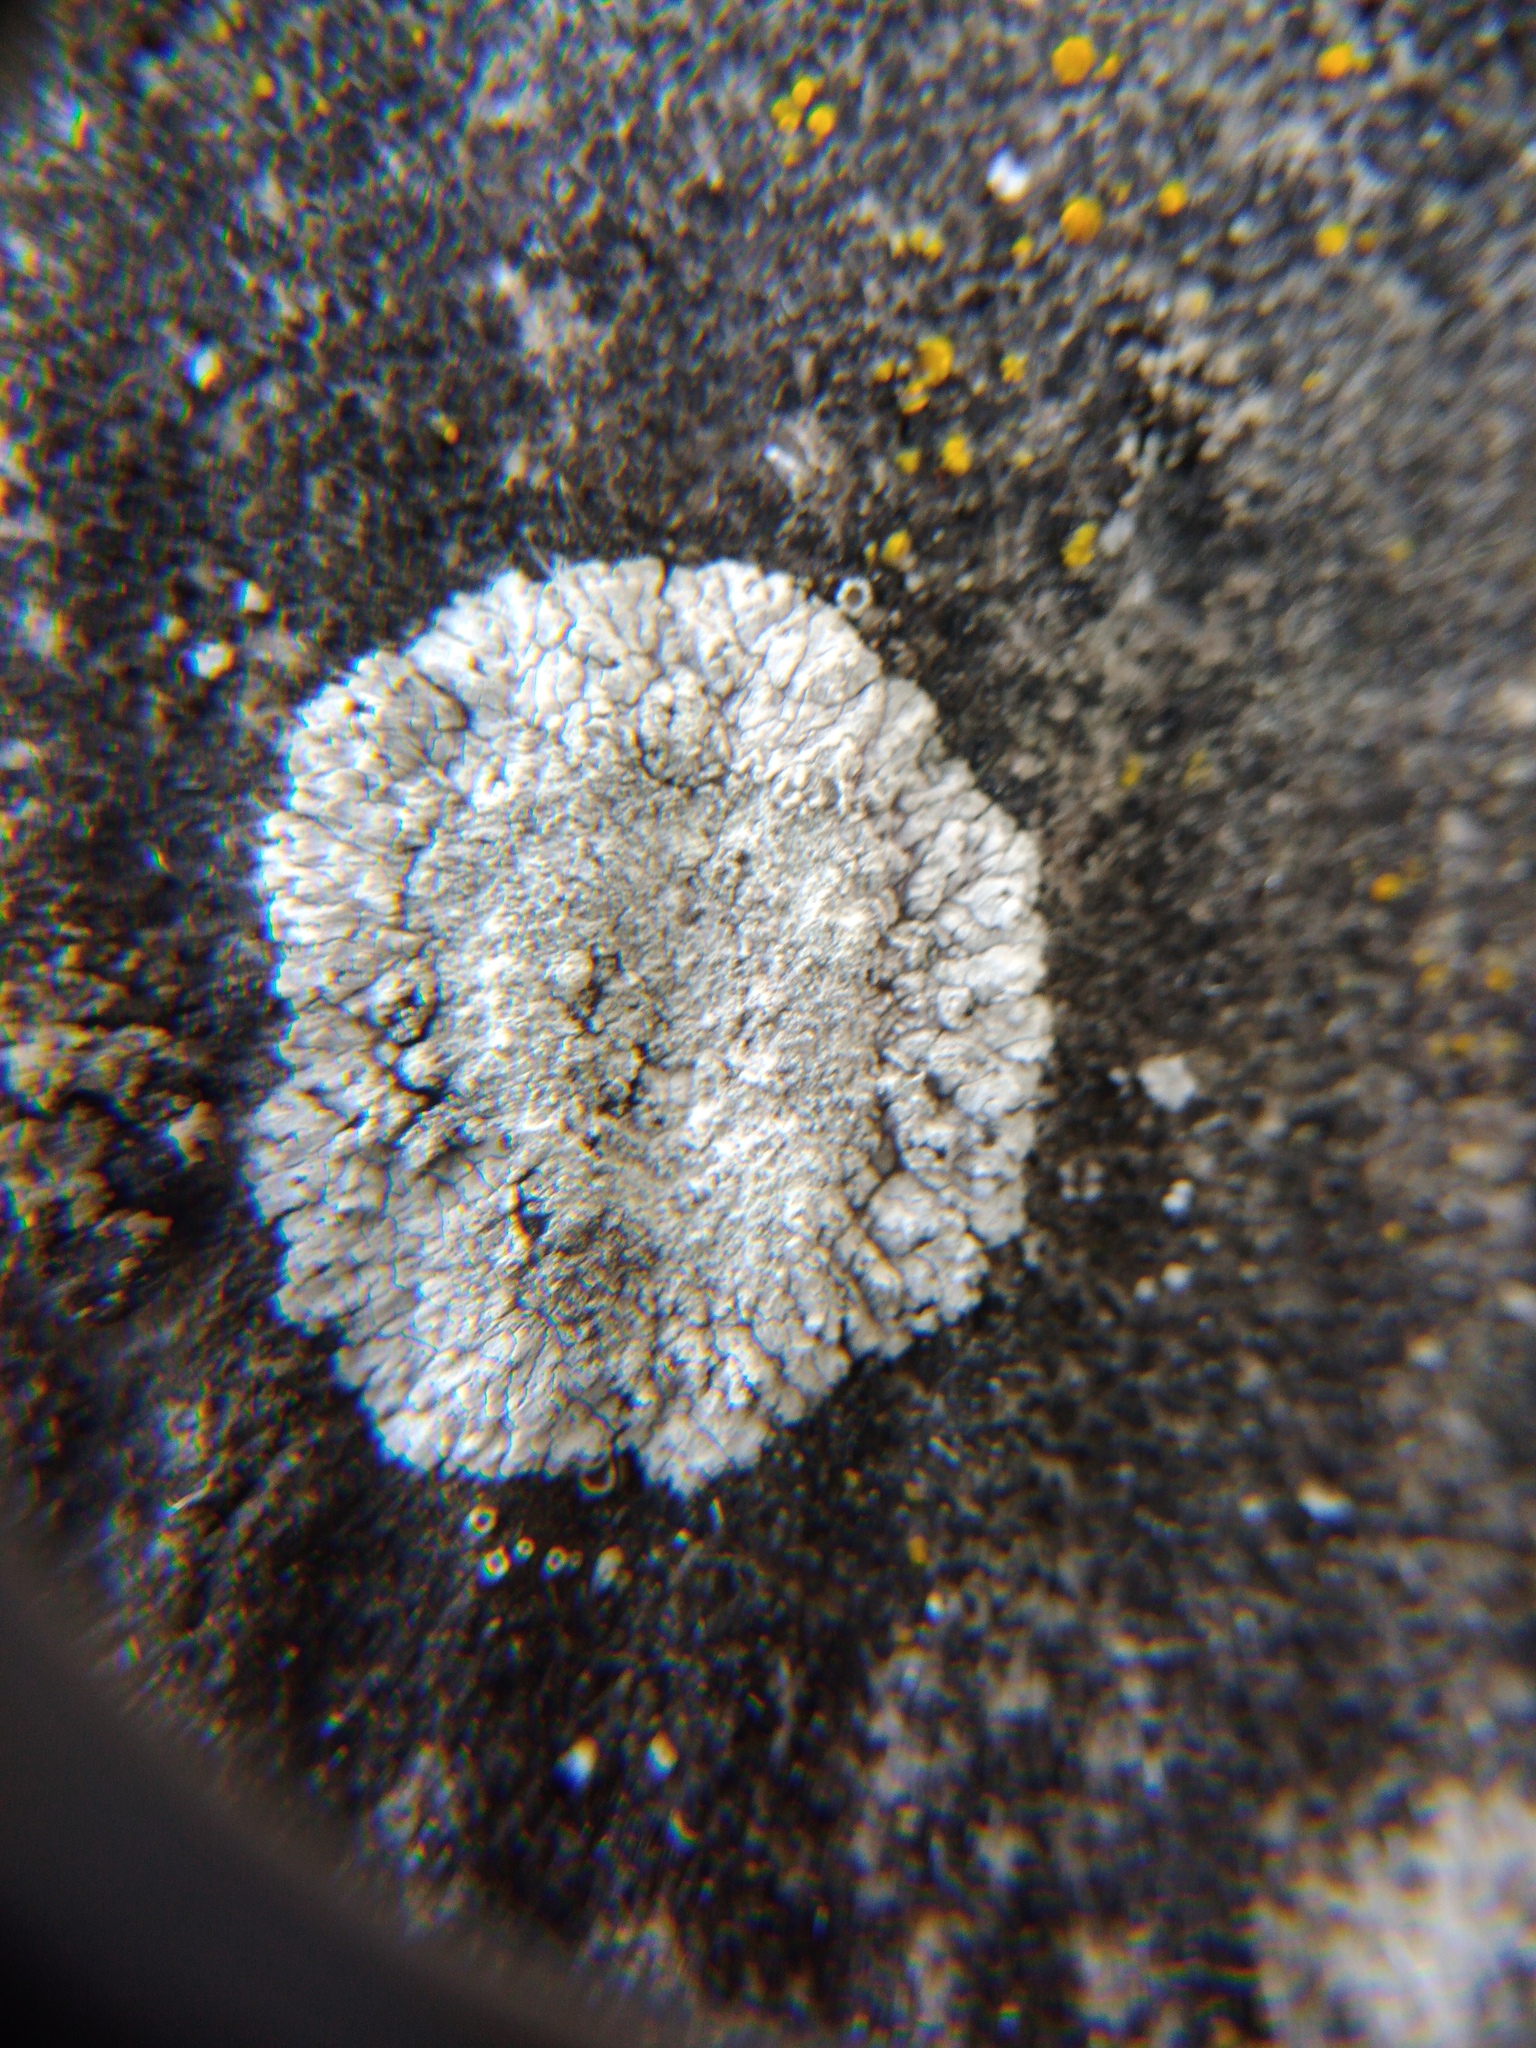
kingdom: Fungi
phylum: Ascomycota
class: Lecanoromycetes
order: Teloschistales
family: Teloschistaceae
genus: Kuettlingeria
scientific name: Kuettlingeria teicholyta
